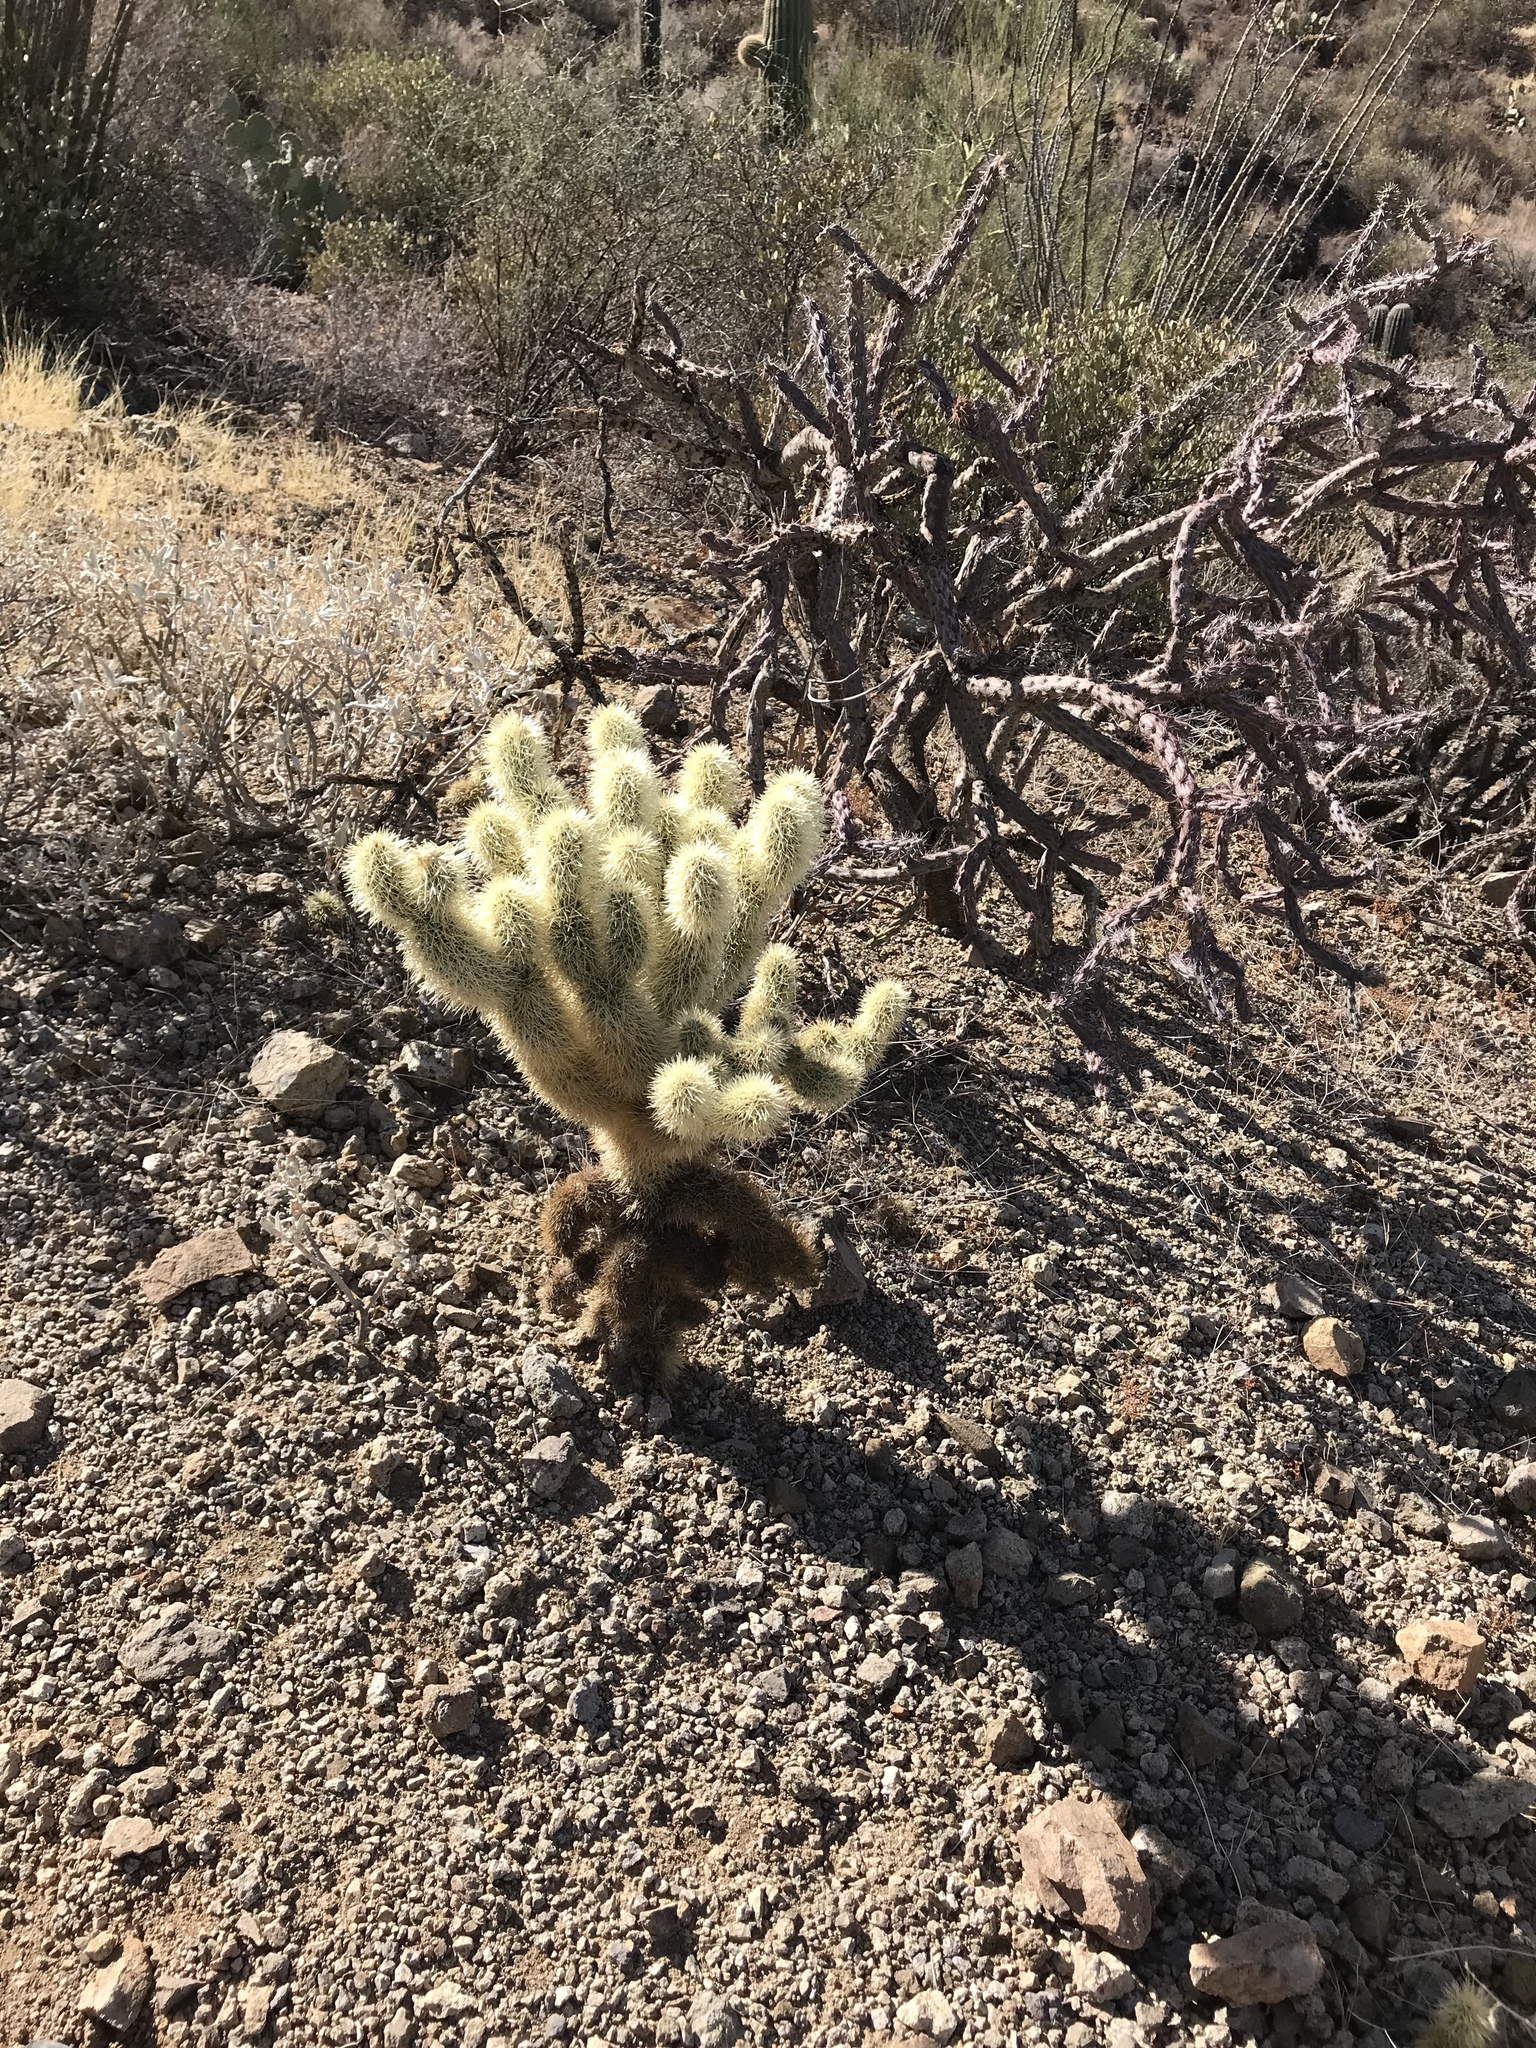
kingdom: Plantae
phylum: Tracheophyta
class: Magnoliopsida
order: Caryophyllales
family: Cactaceae
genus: Cylindropuntia
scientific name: Cylindropuntia fosbergii
